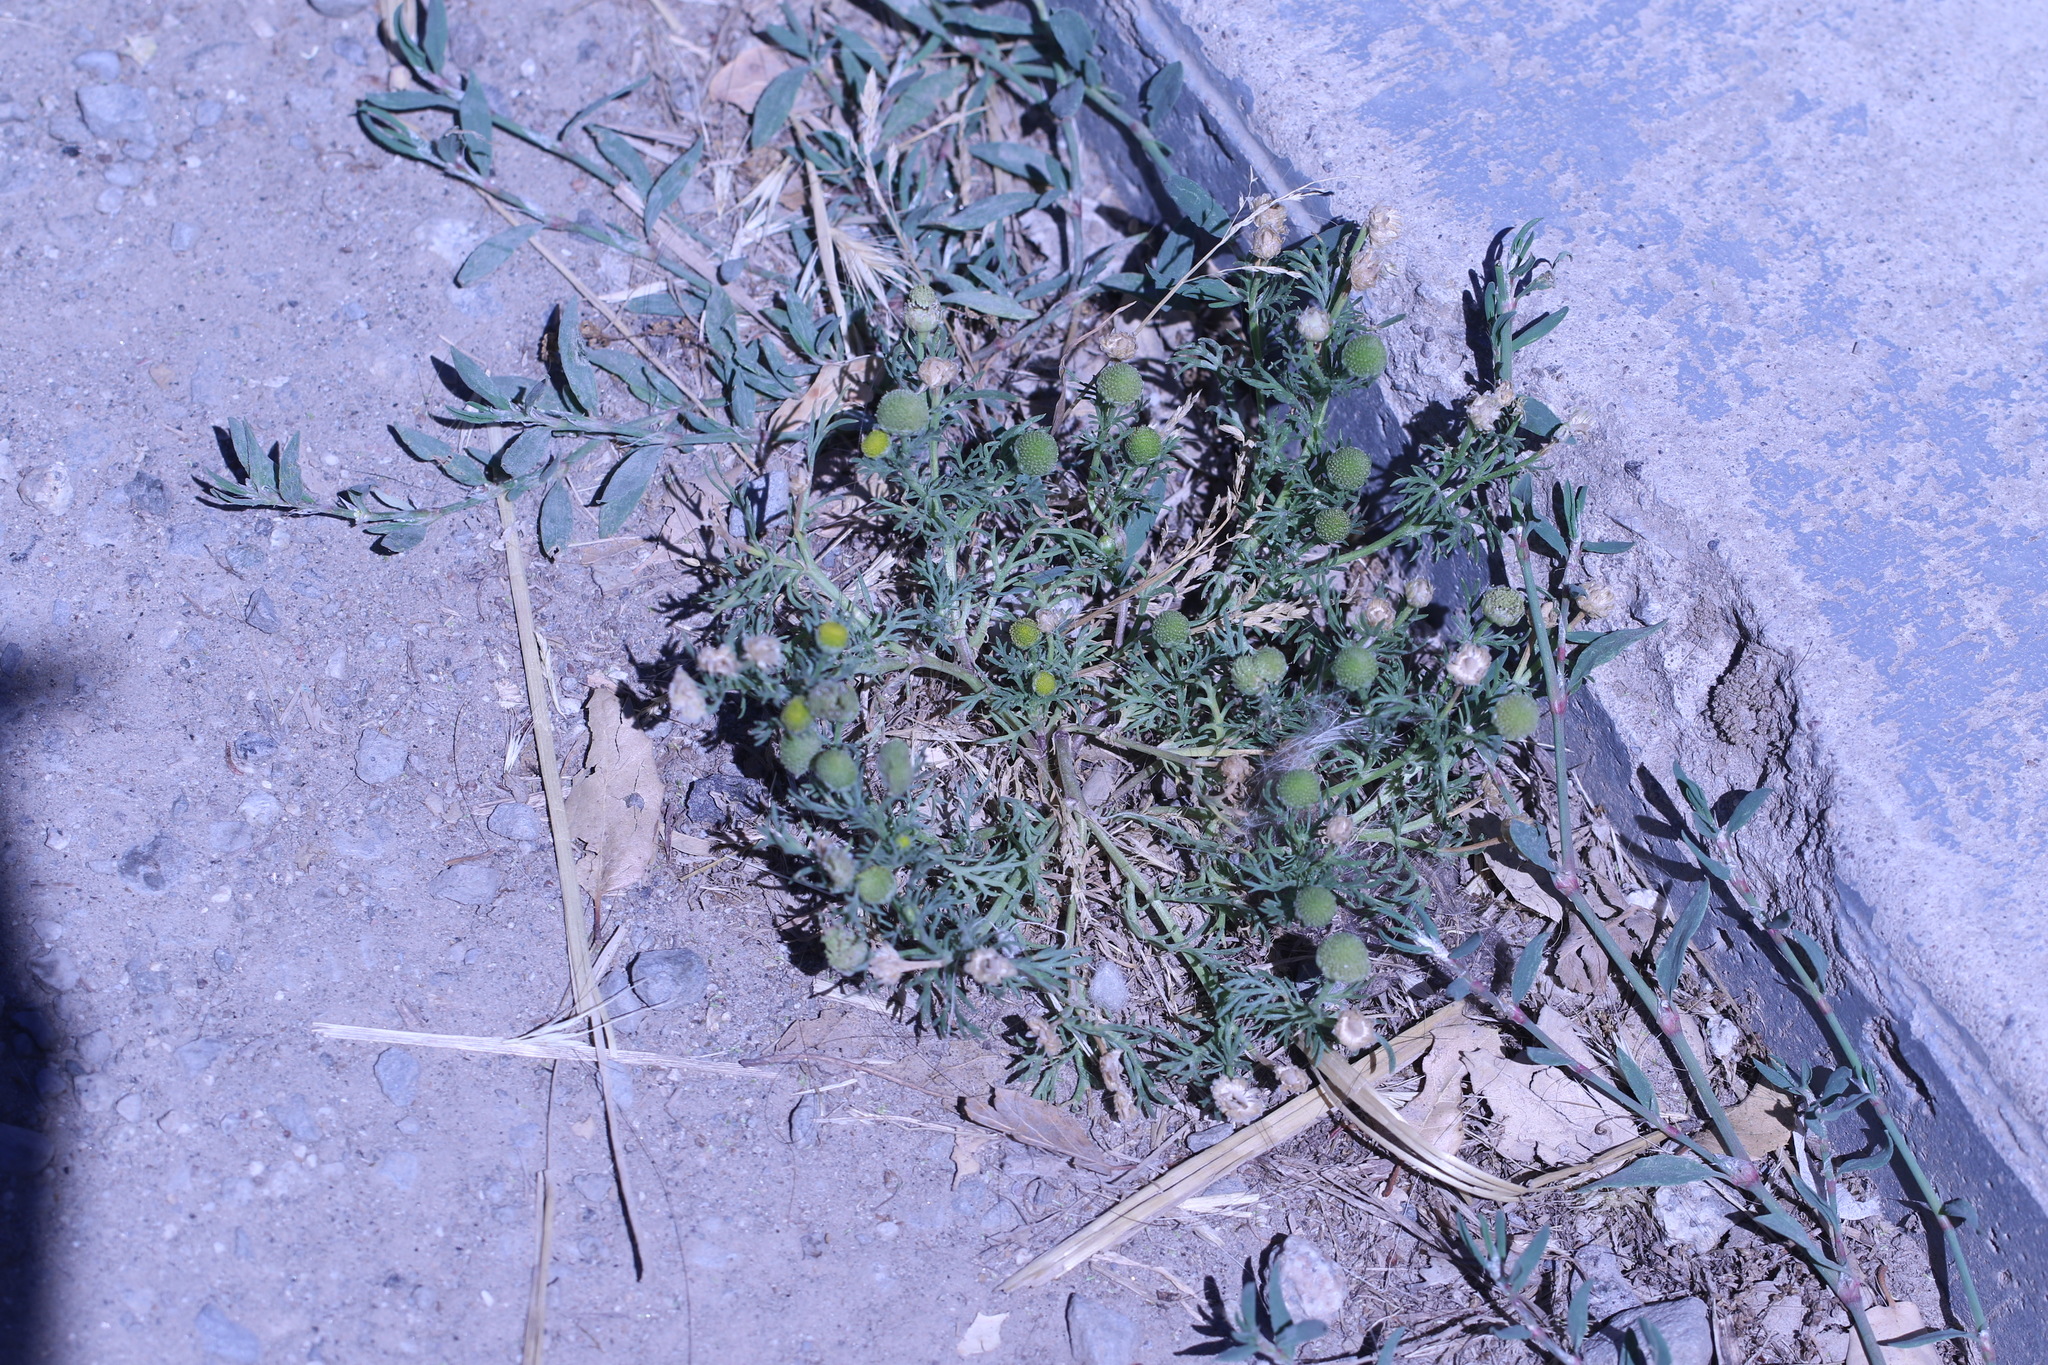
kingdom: Plantae
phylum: Tracheophyta
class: Magnoliopsida
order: Asterales
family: Asteraceae
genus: Matricaria
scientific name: Matricaria discoidea
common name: Disc mayweed
